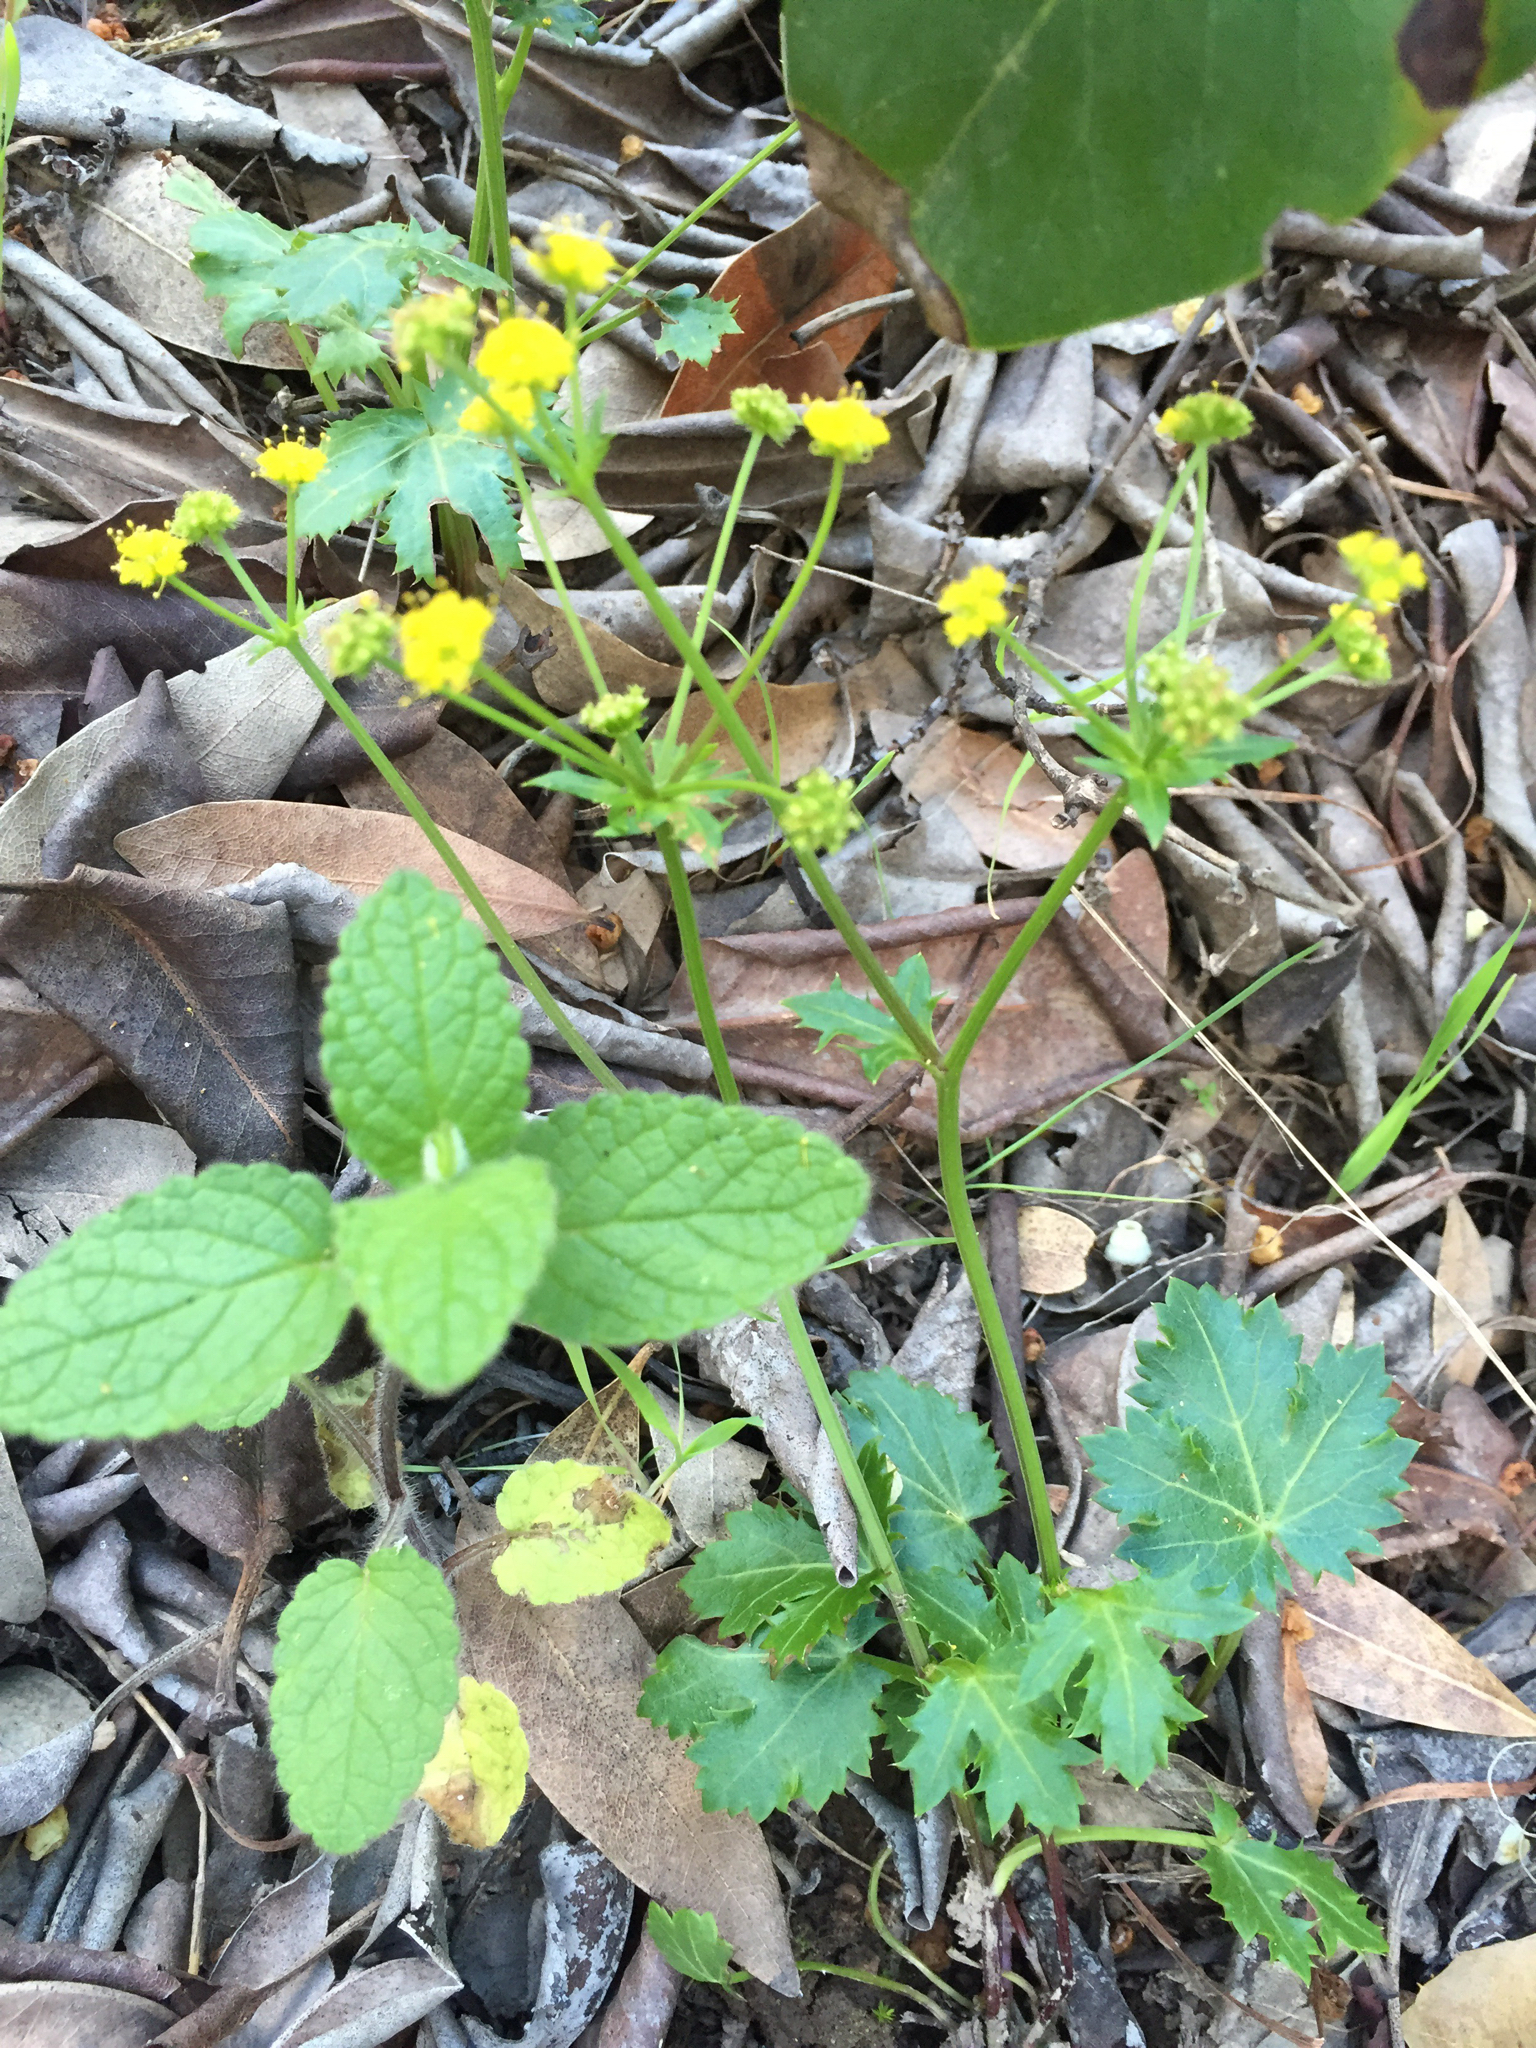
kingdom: Plantae
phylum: Tracheophyta
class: Magnoliopsida
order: Apiales
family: Apiaceae
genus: Sanicula
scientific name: Sanicula laciniata
